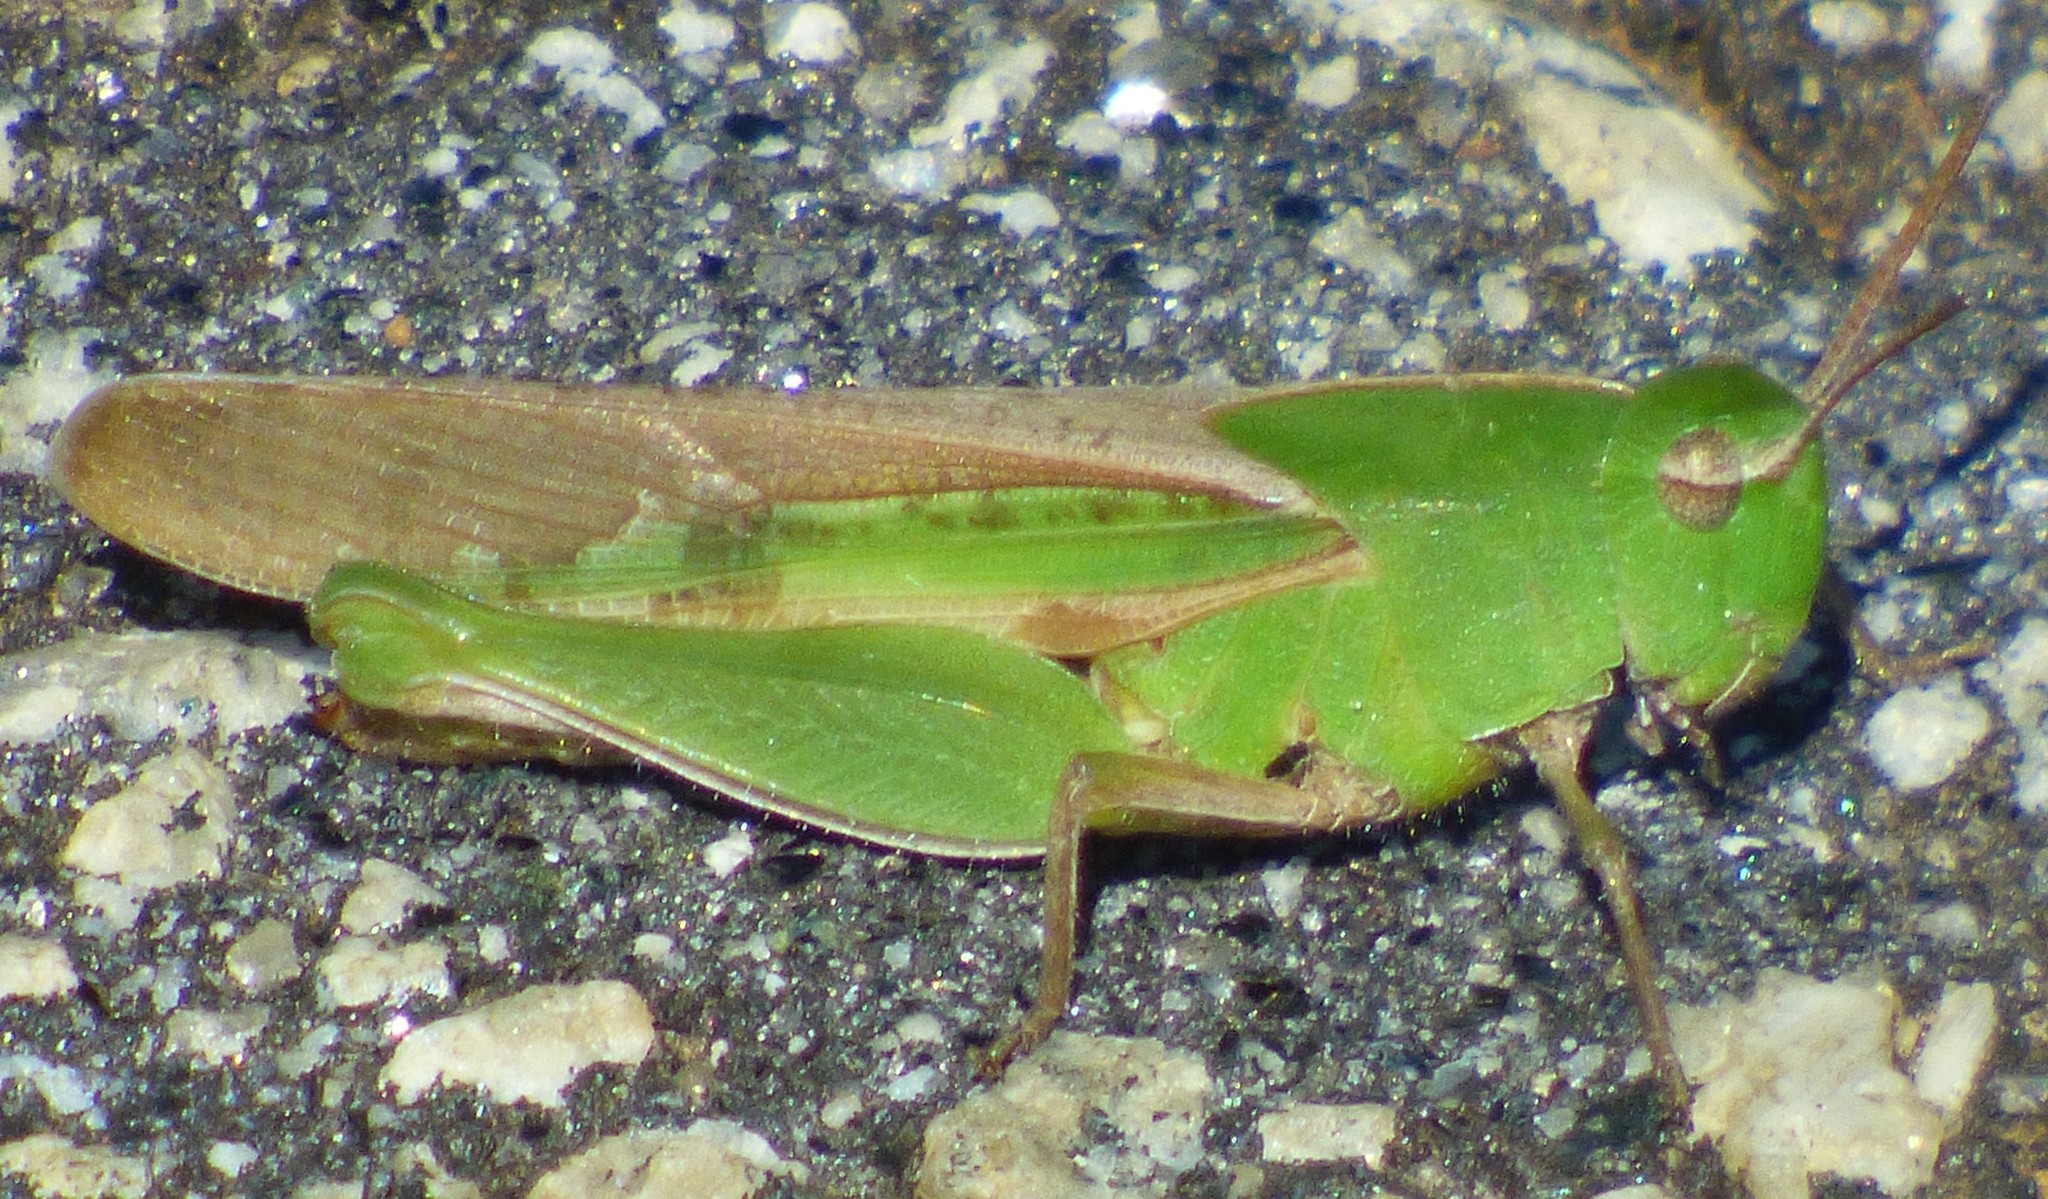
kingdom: Animalia
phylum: Arthropoda
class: Insecta
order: Orthoptera
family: Acrididae
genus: Chortophaga
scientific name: Chortophaga viridifasciata
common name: Green-striped grasshopper
